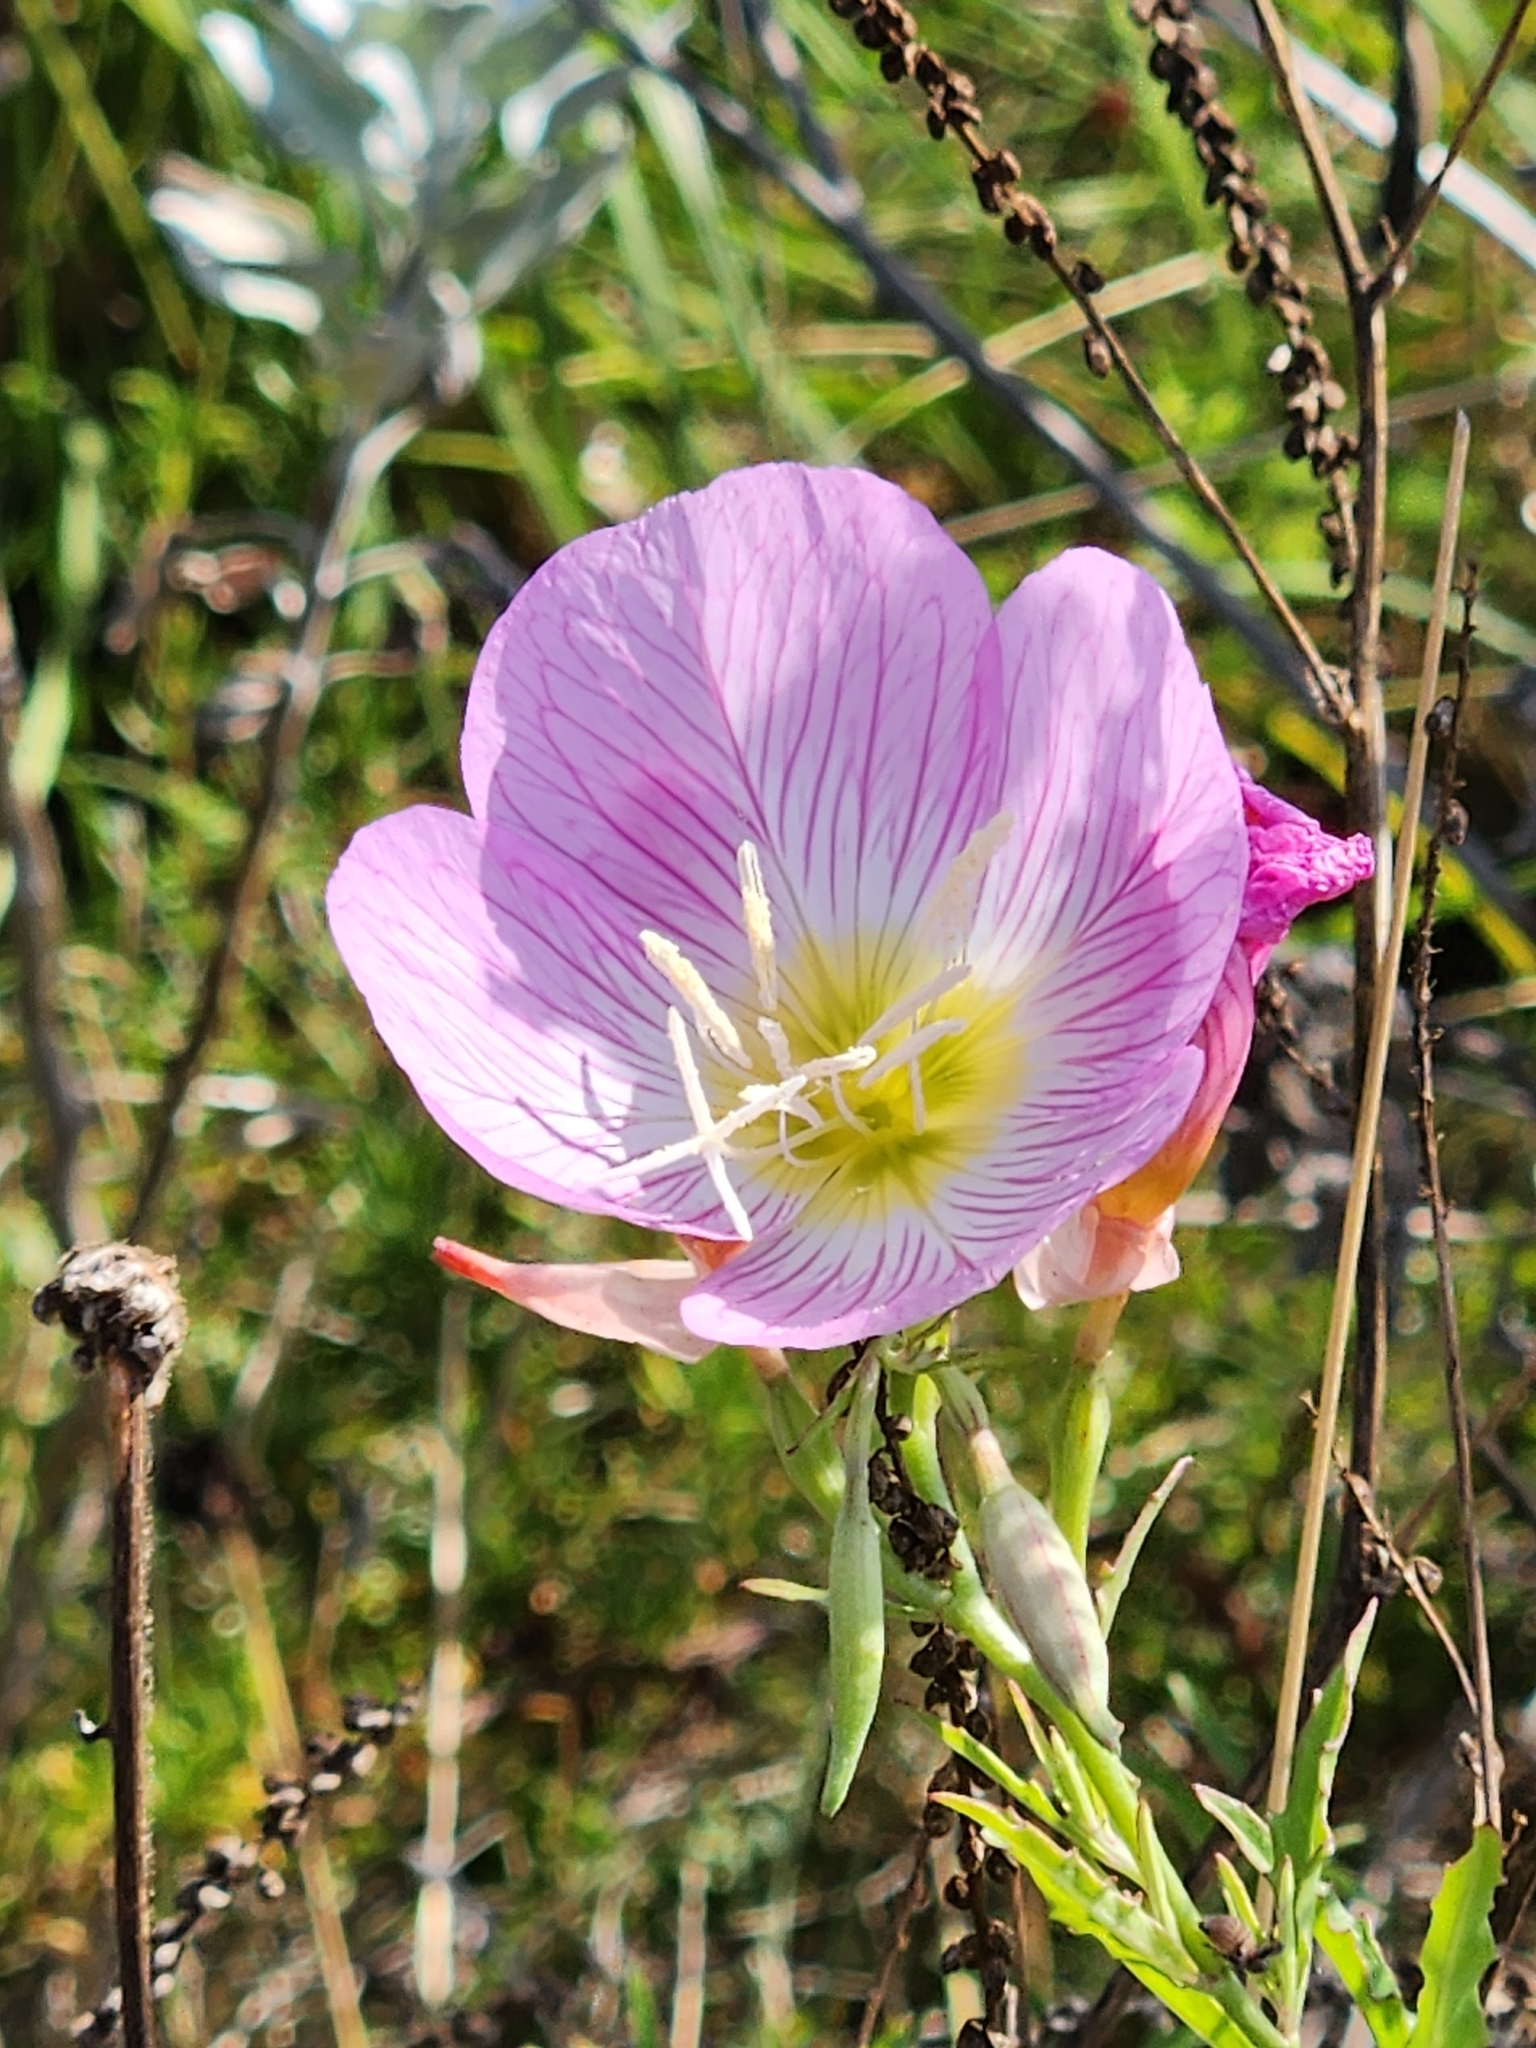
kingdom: Plantae
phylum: Tracheophyta
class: Magnoliopsida
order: Myrtales
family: Onagraceae
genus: Oenothera
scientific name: Oenothera speciosa
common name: White evening-primrose
